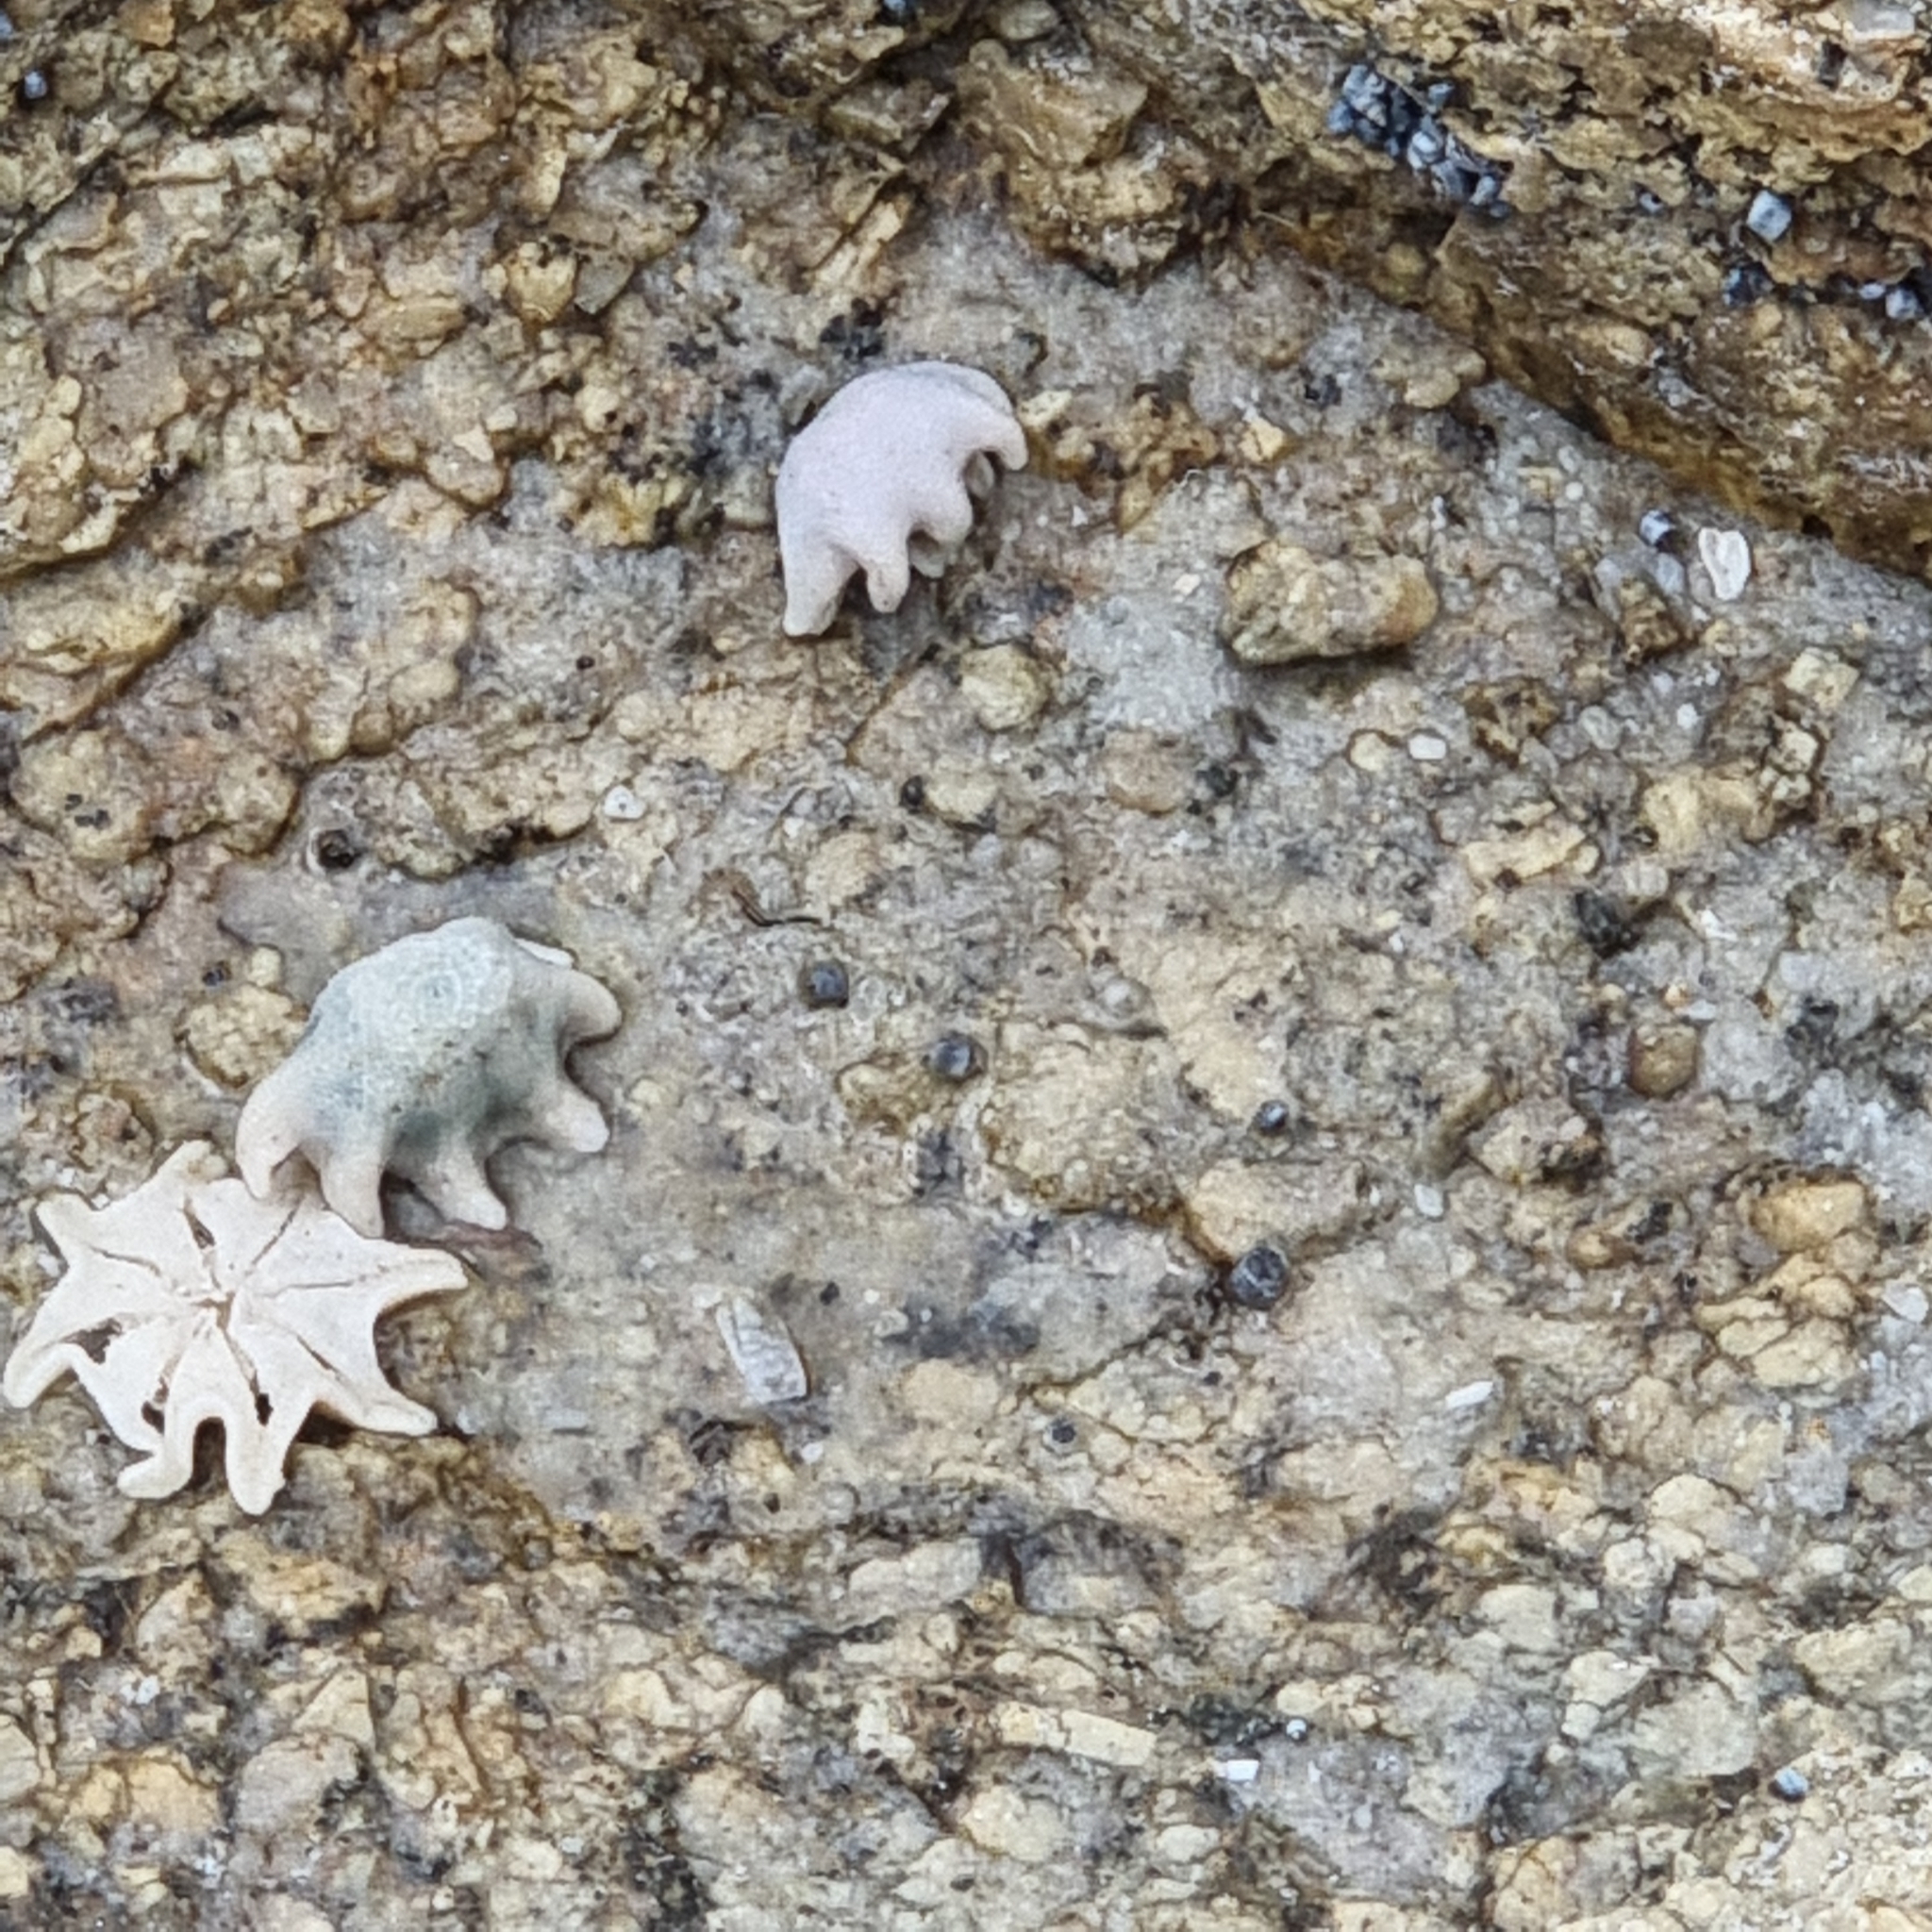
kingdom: Animalia
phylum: Echinodermata
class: Asteroidea
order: Valvatida
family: Asterinidae
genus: Meridiastra
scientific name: Meridiastra calcar
